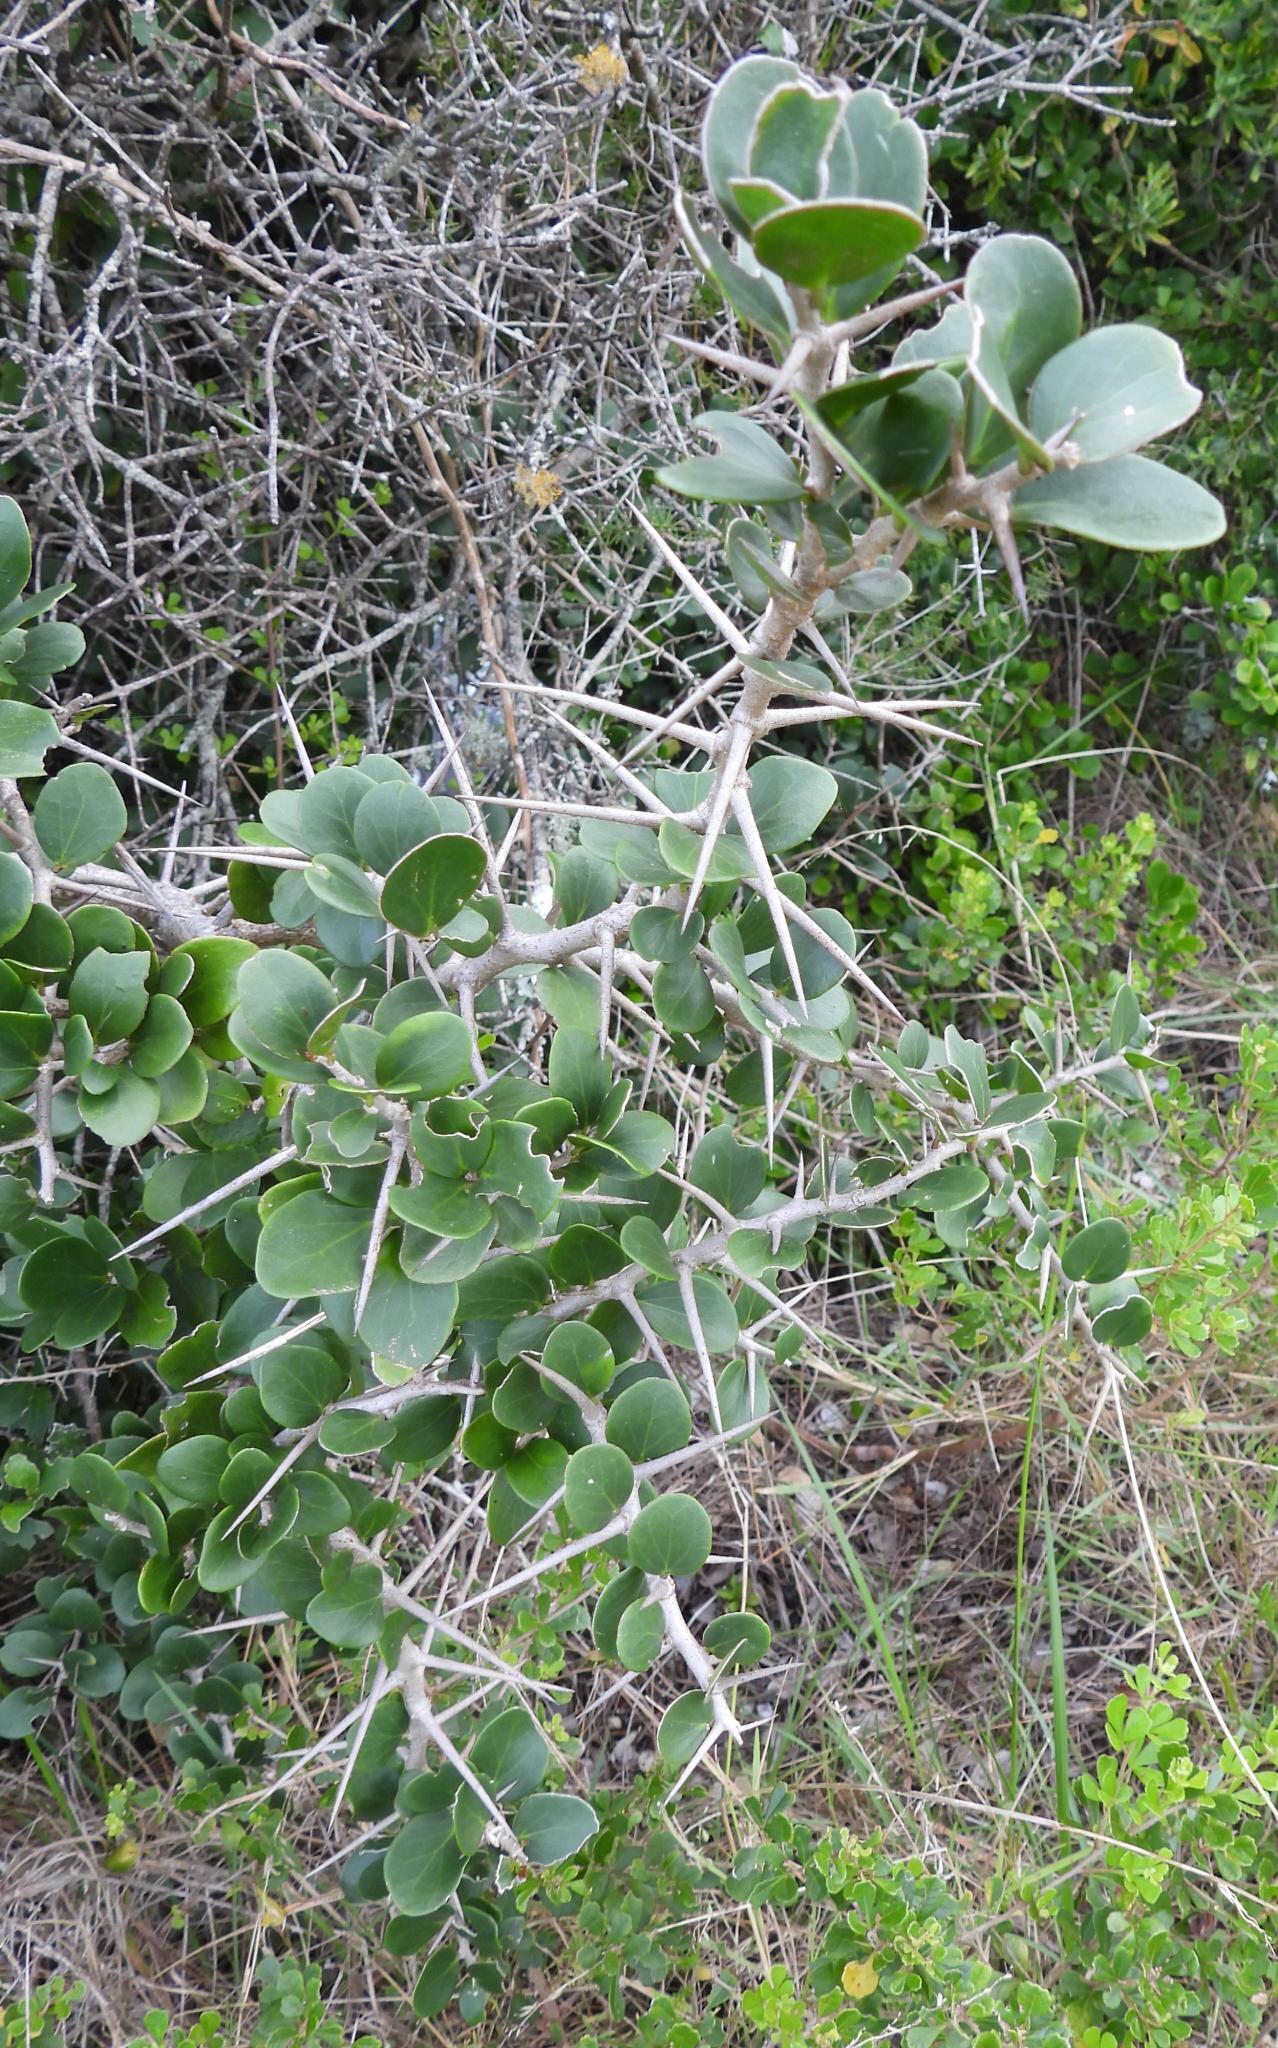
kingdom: Plantae
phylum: Tracheophyta
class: Magnoliopsida
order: Malpighiales
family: Salicaceae
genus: Dovyalis
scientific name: Dovyalis rotundifolia
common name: Dune sourberry
